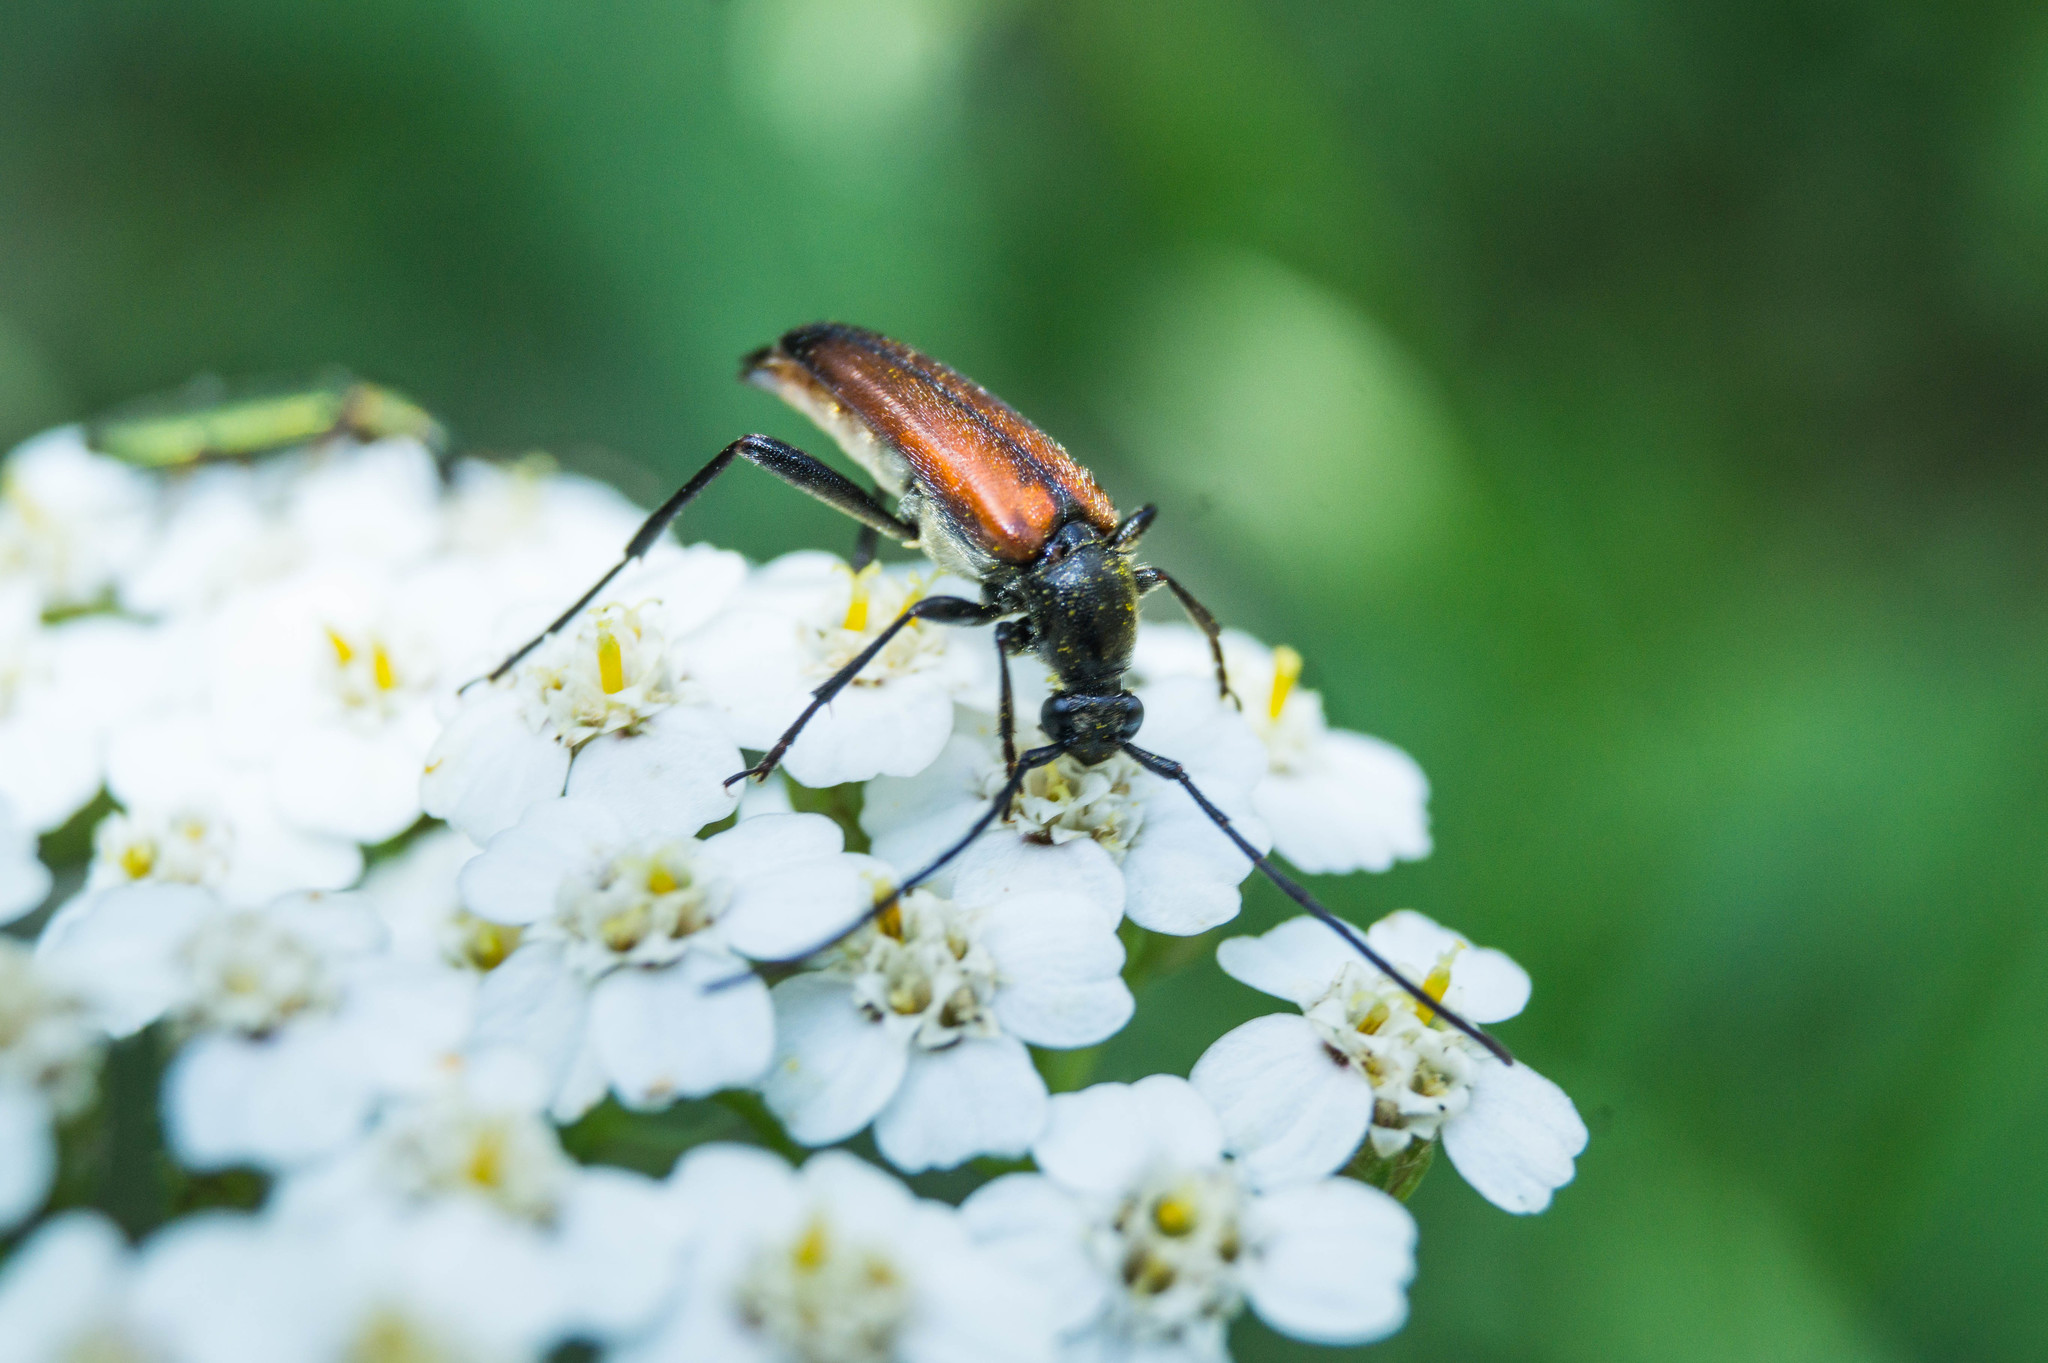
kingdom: Animalia
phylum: Arthropoda
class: Insecta
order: Coleoptera
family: Cerambycidae
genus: Stenurella
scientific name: Stenurella melanura
